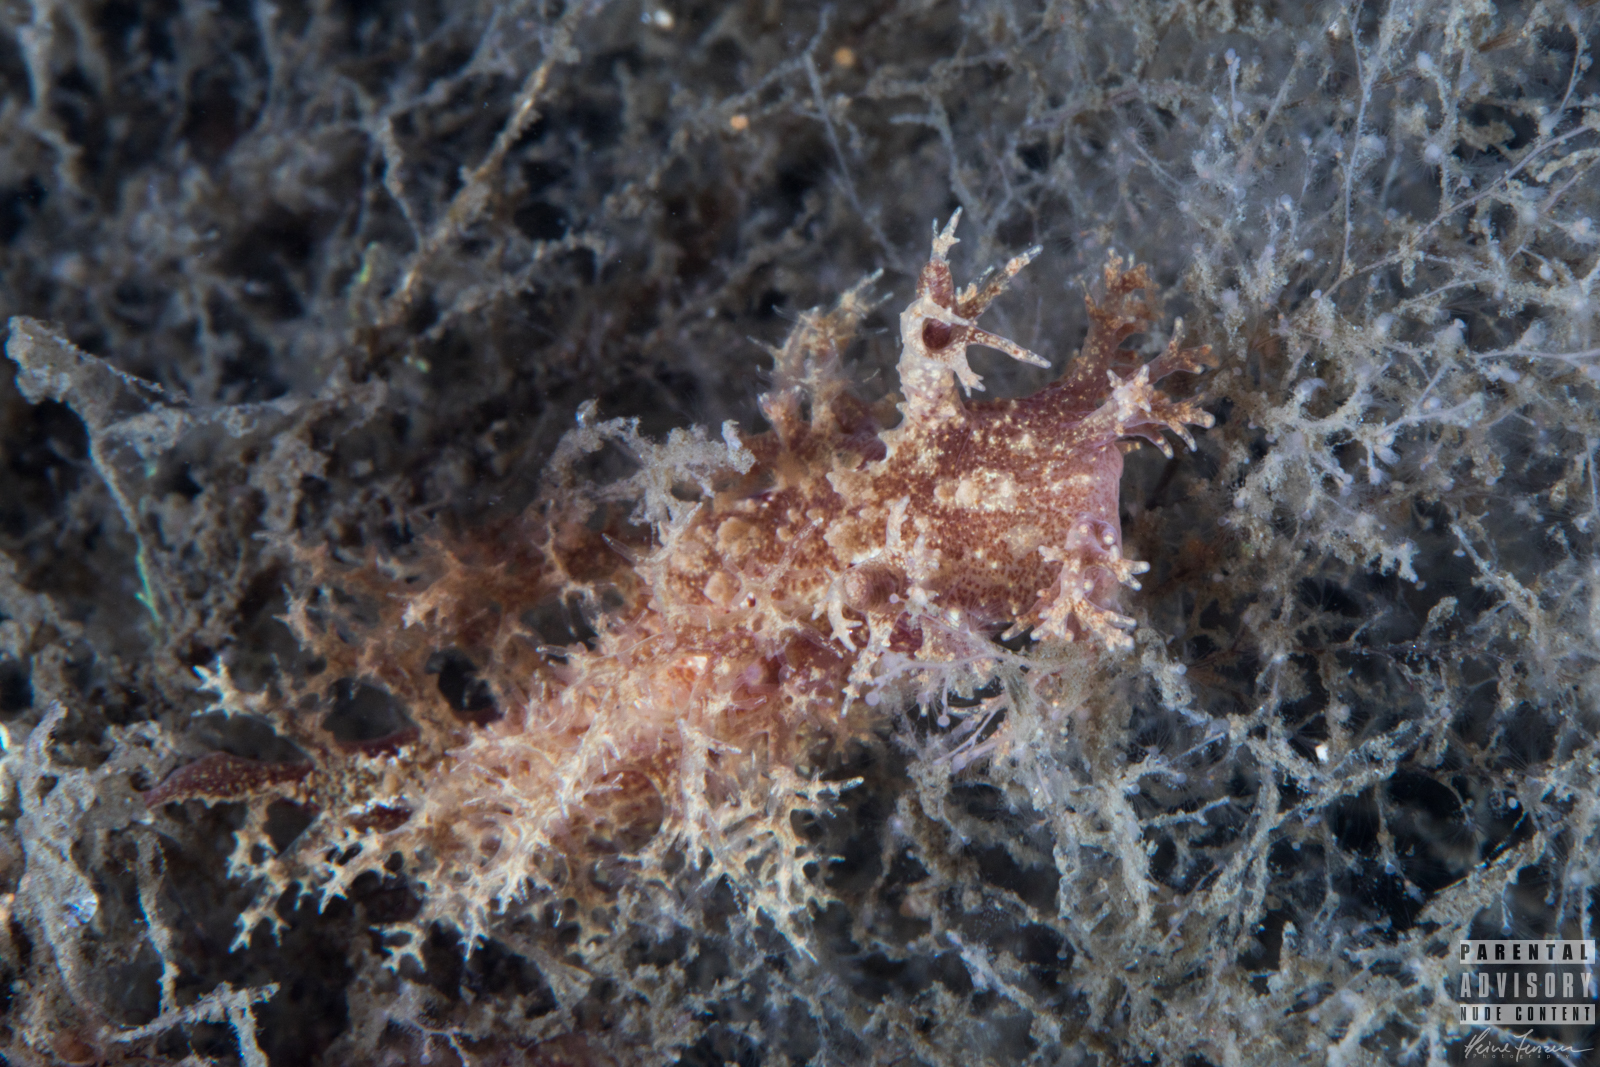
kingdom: Animalia
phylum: Mollusca
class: Gastropoda
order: Nudibranchia
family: Dendronotidae
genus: Dendronotus
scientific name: Dendronotus frondosus
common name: Bushy-backed nudibranch
